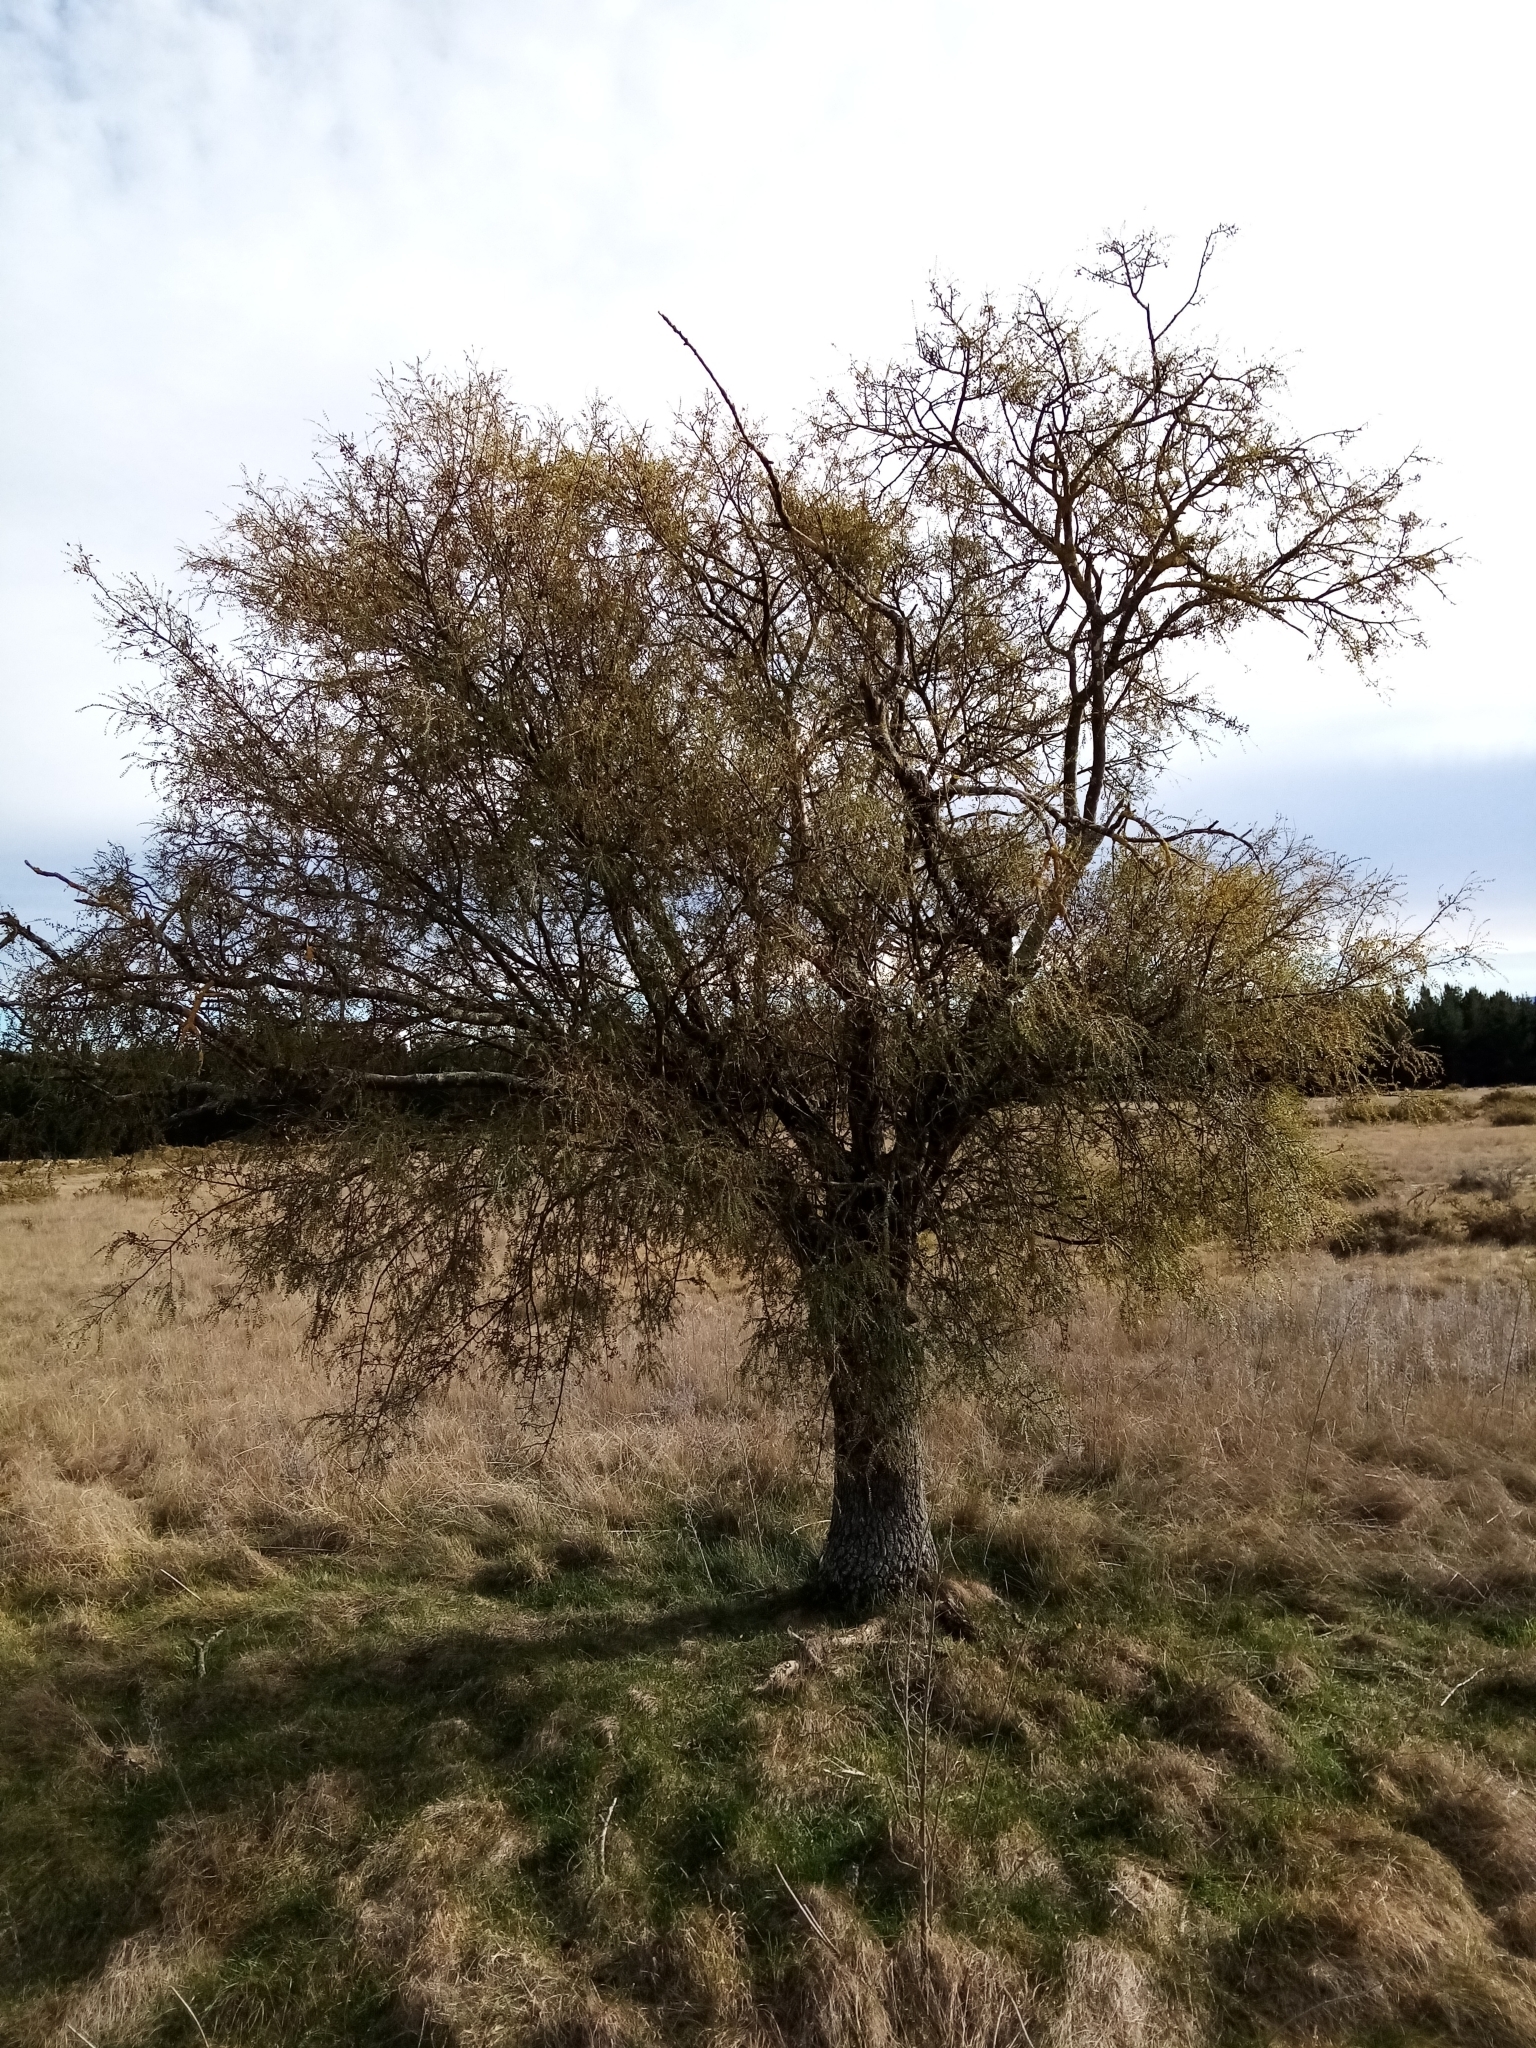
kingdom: Plantae
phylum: Tracheophyta
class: Magnoliopsida
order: Fabales
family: Fabaceae
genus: Sophora
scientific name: Sophora microphylla
